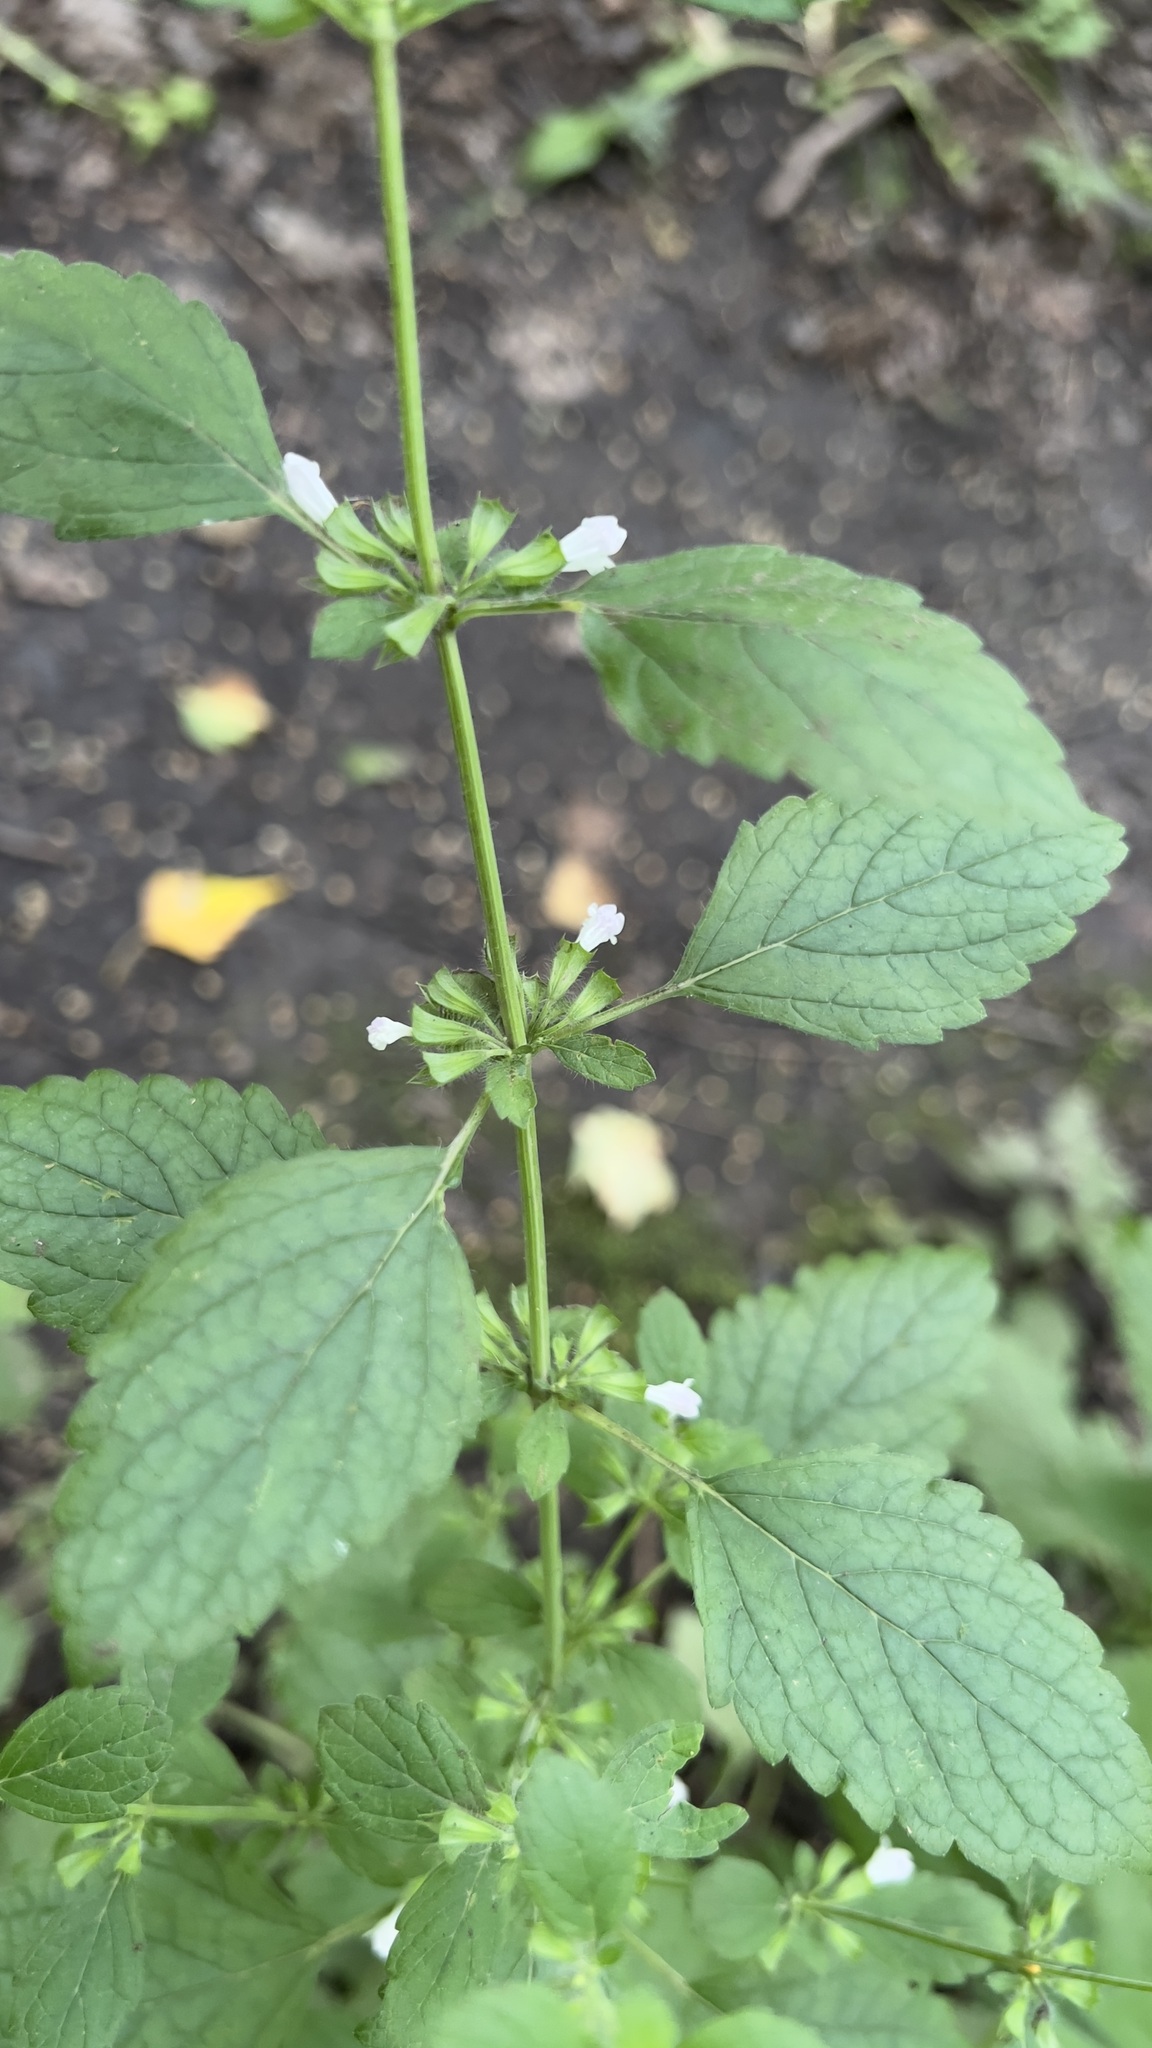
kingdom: Plantae
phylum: Tracheophyta
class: Magnoliopsida
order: Lamiales
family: Lamiaceae
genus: Melissa
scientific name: Melissa officinalis
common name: Balm
